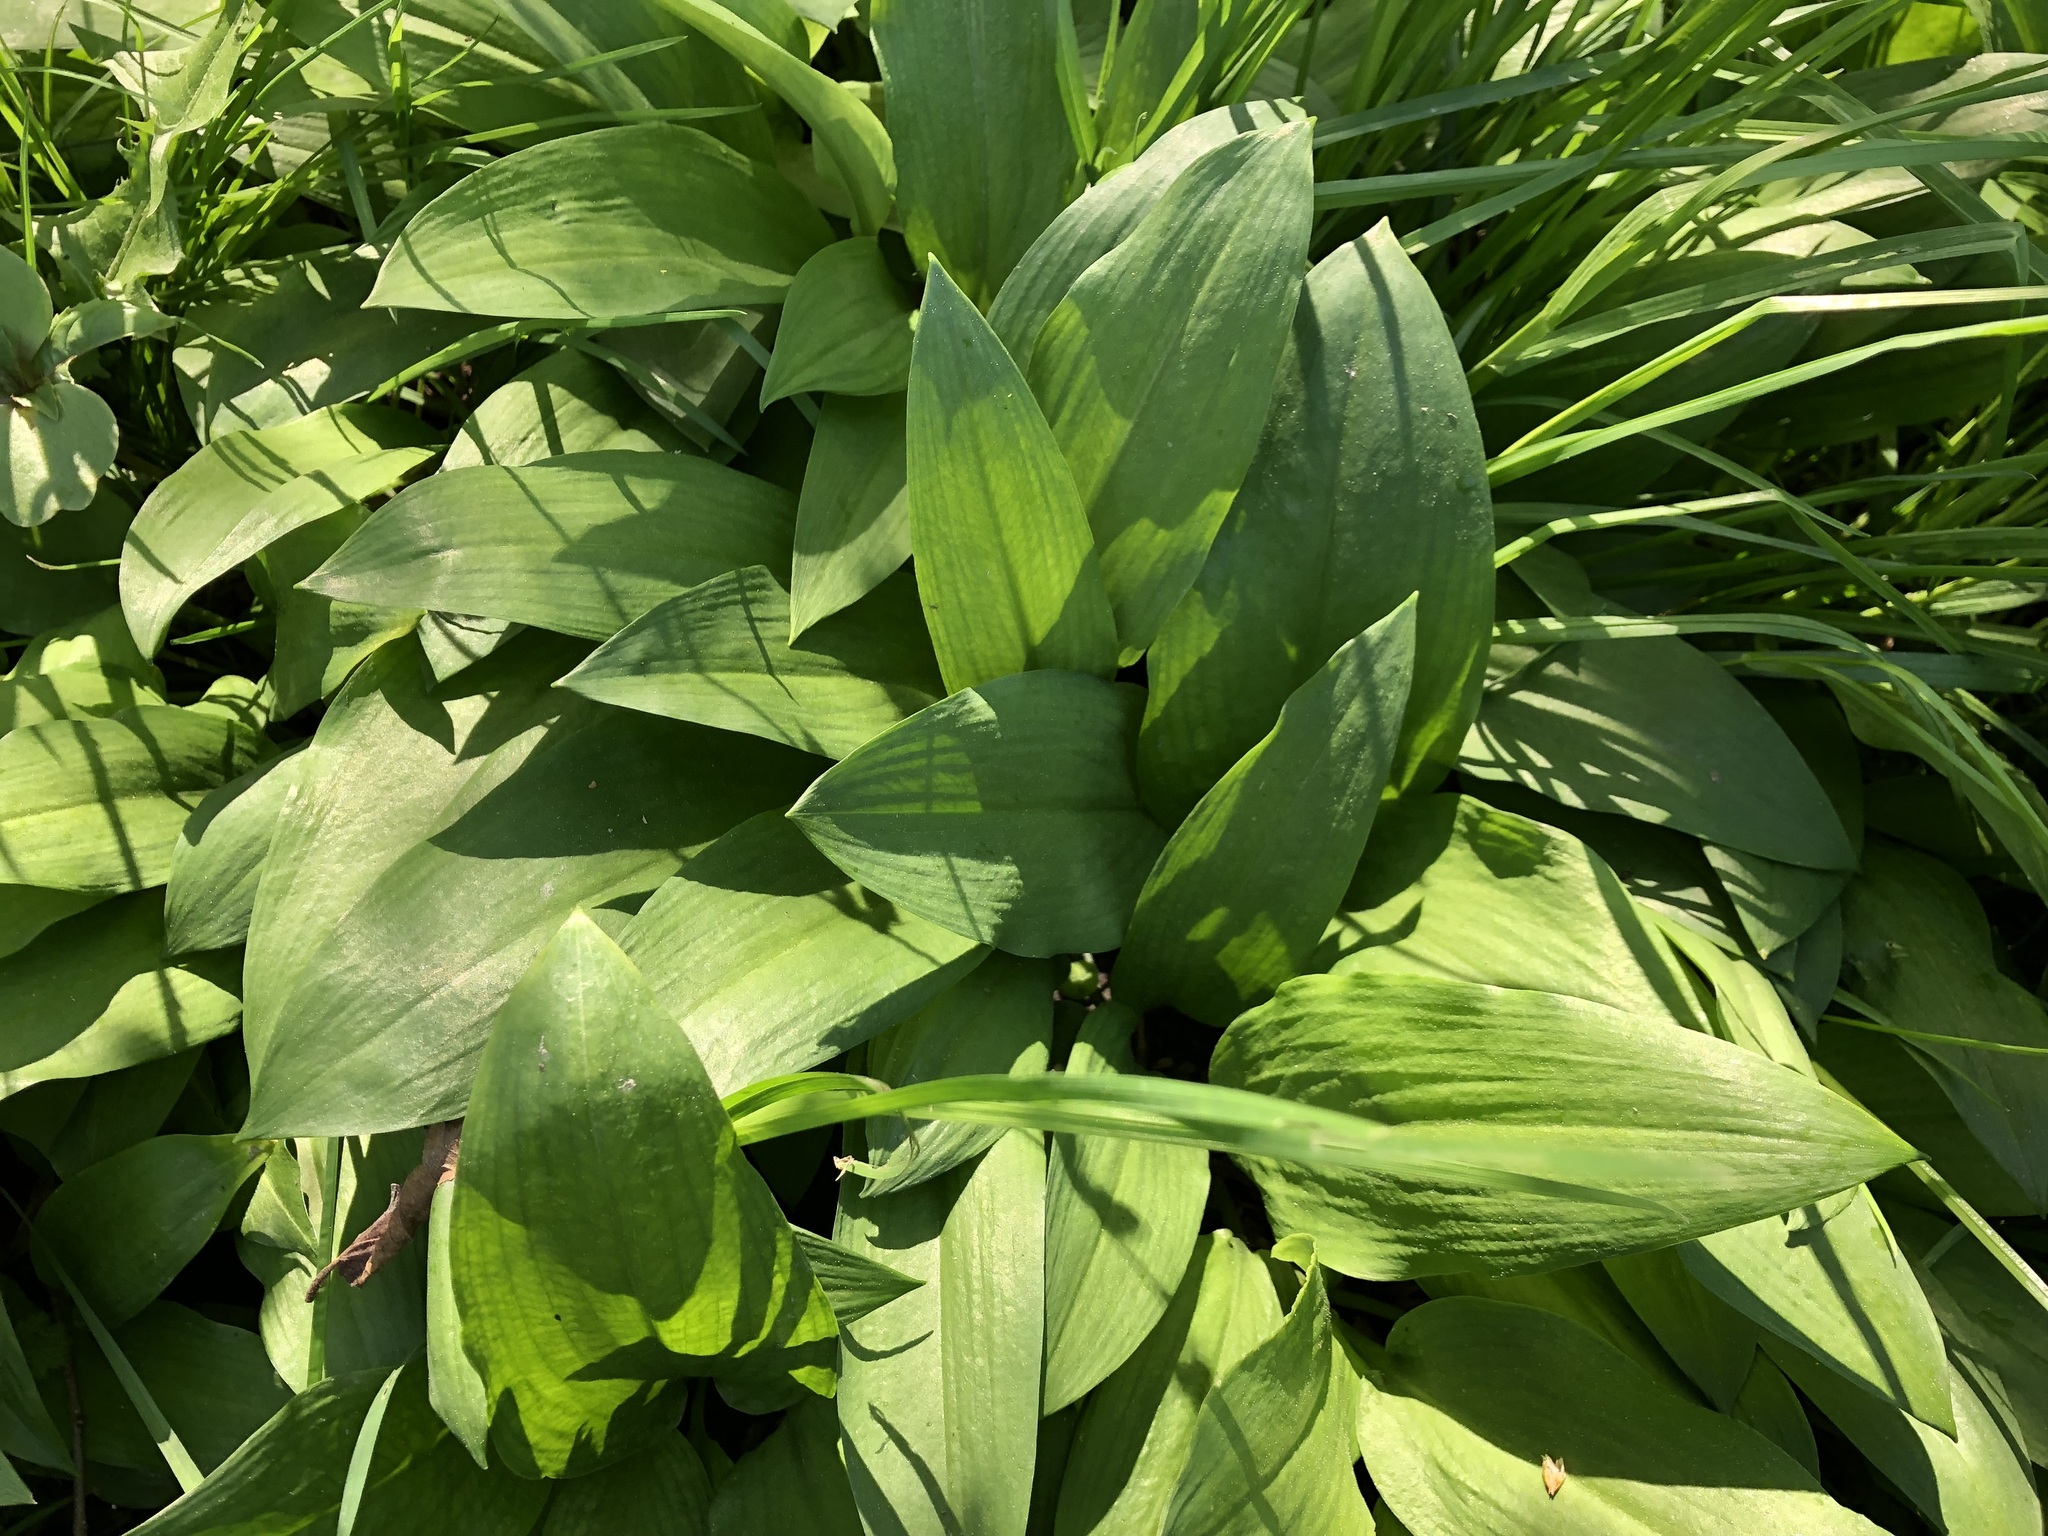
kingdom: Plantae
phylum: Tracheophyta
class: Liliopsida
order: Asparagales
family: Amaryllidaceae
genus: Allium
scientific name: Allium ursinum
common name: Ramsons
